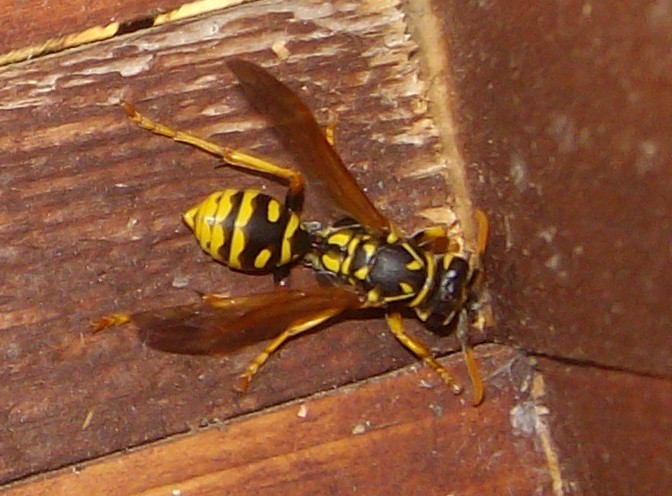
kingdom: Animalia
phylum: Arthropoda
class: Insecta
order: Hymenoptera
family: Eumenidae
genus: Polistes
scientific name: Polistes dominula
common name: Paper wasp
